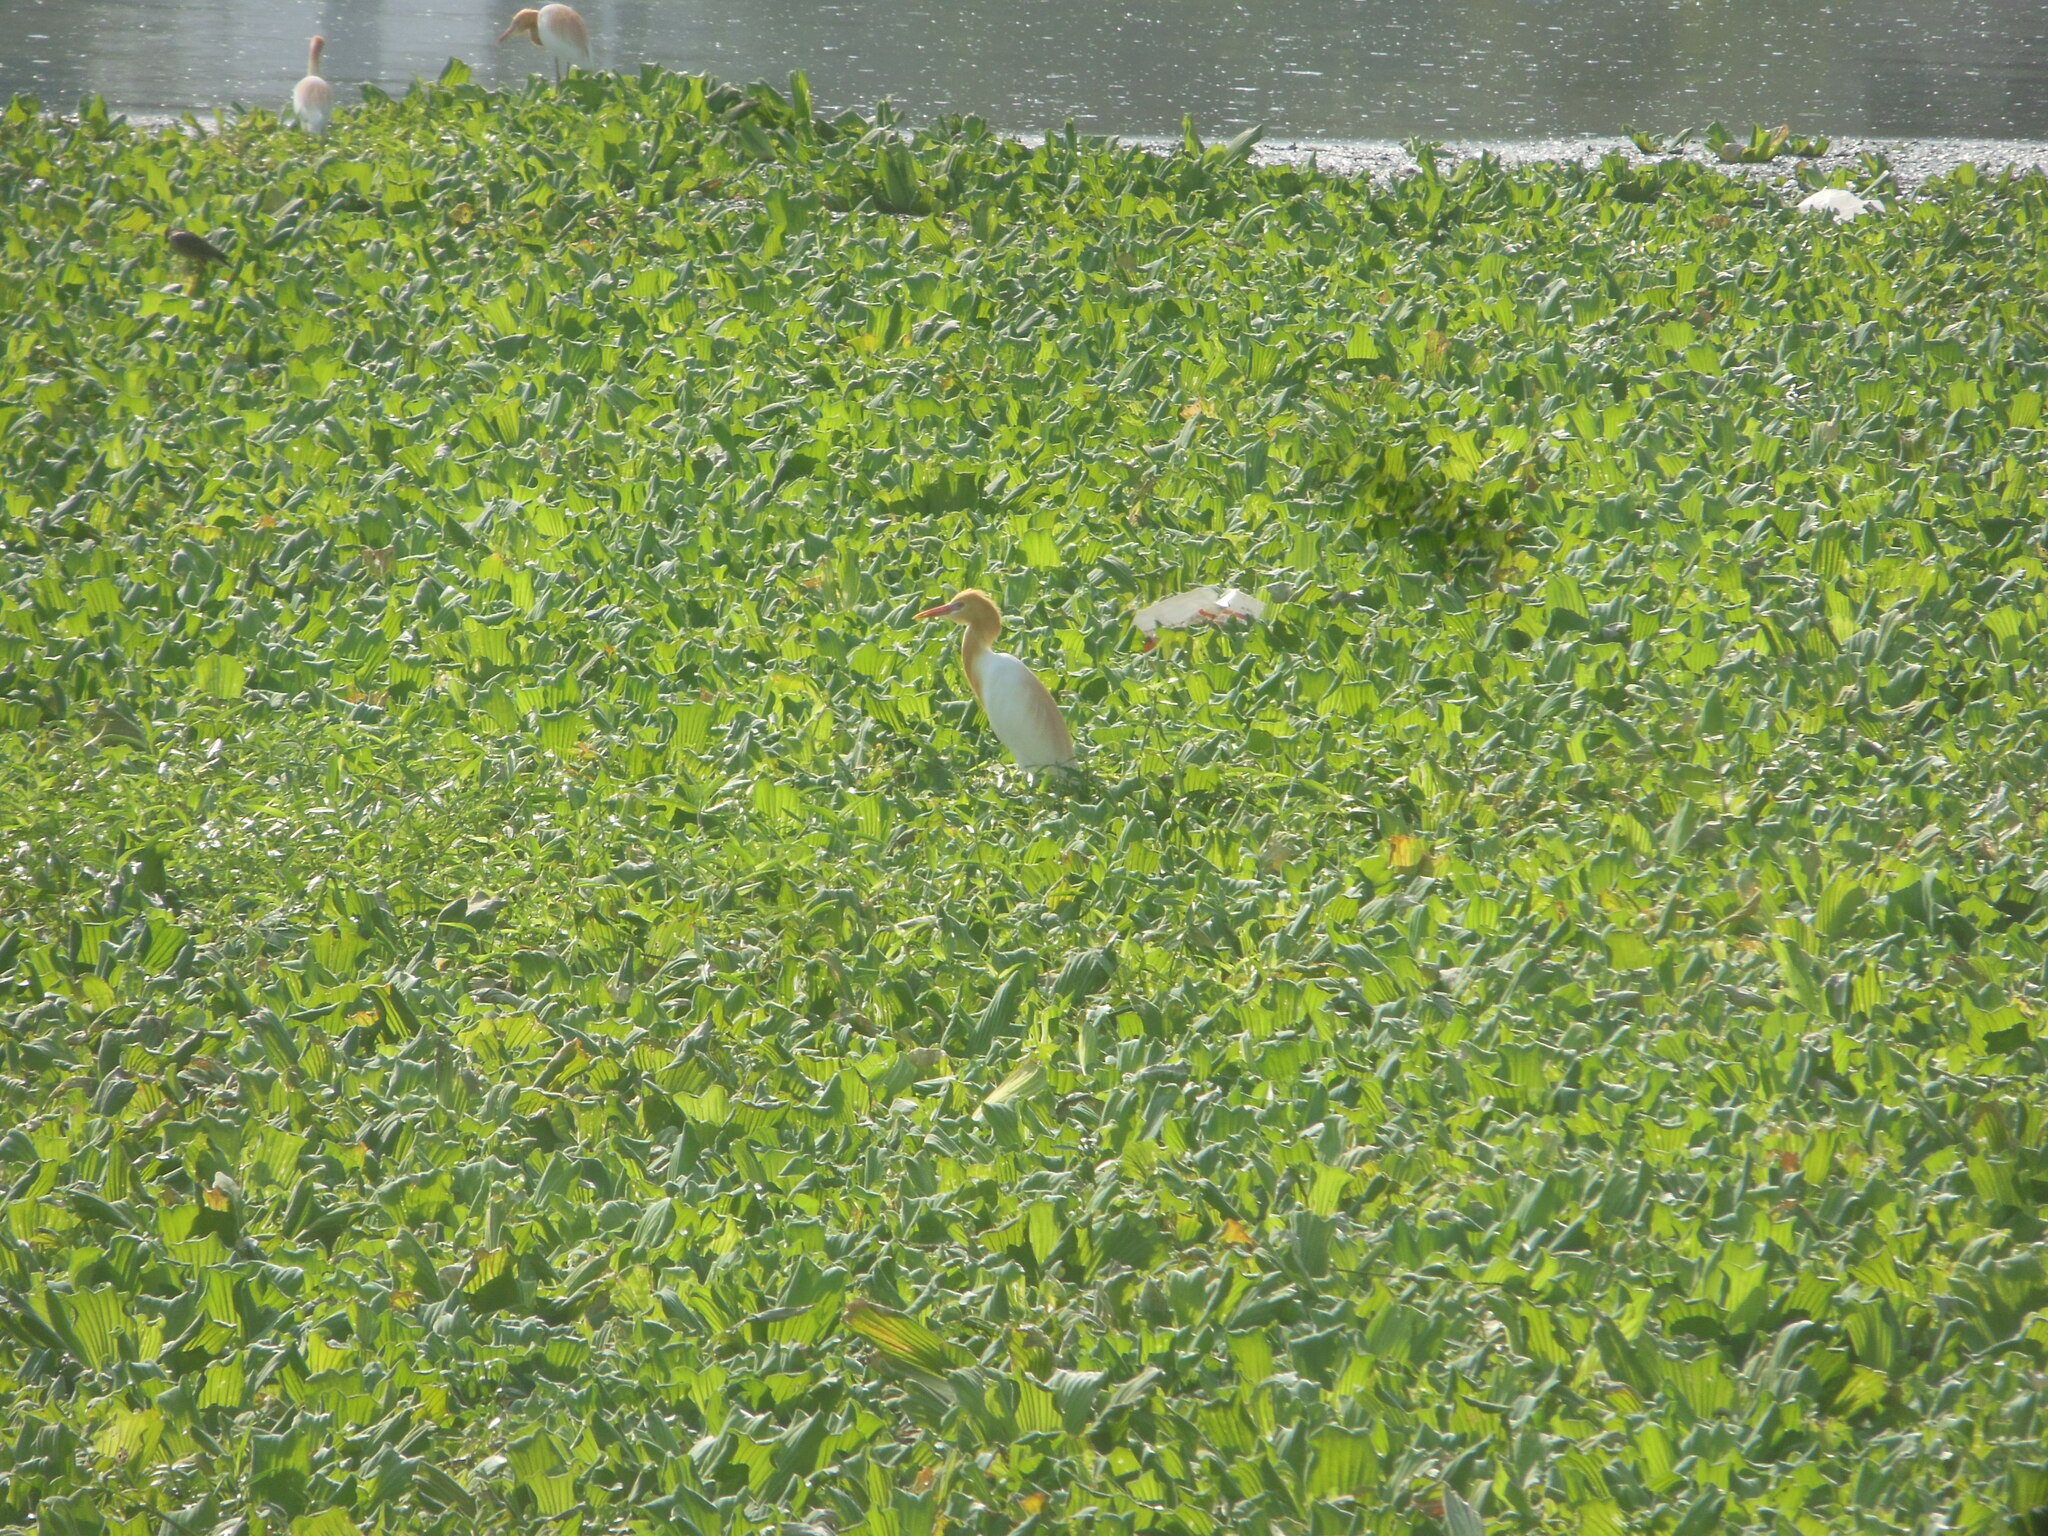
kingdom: Animalia
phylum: Chordata
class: Aves
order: Pelecaniformes
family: Ardeidae
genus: Bubulcus
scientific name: Bubulcus coromandus
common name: Eastern cattle egret
